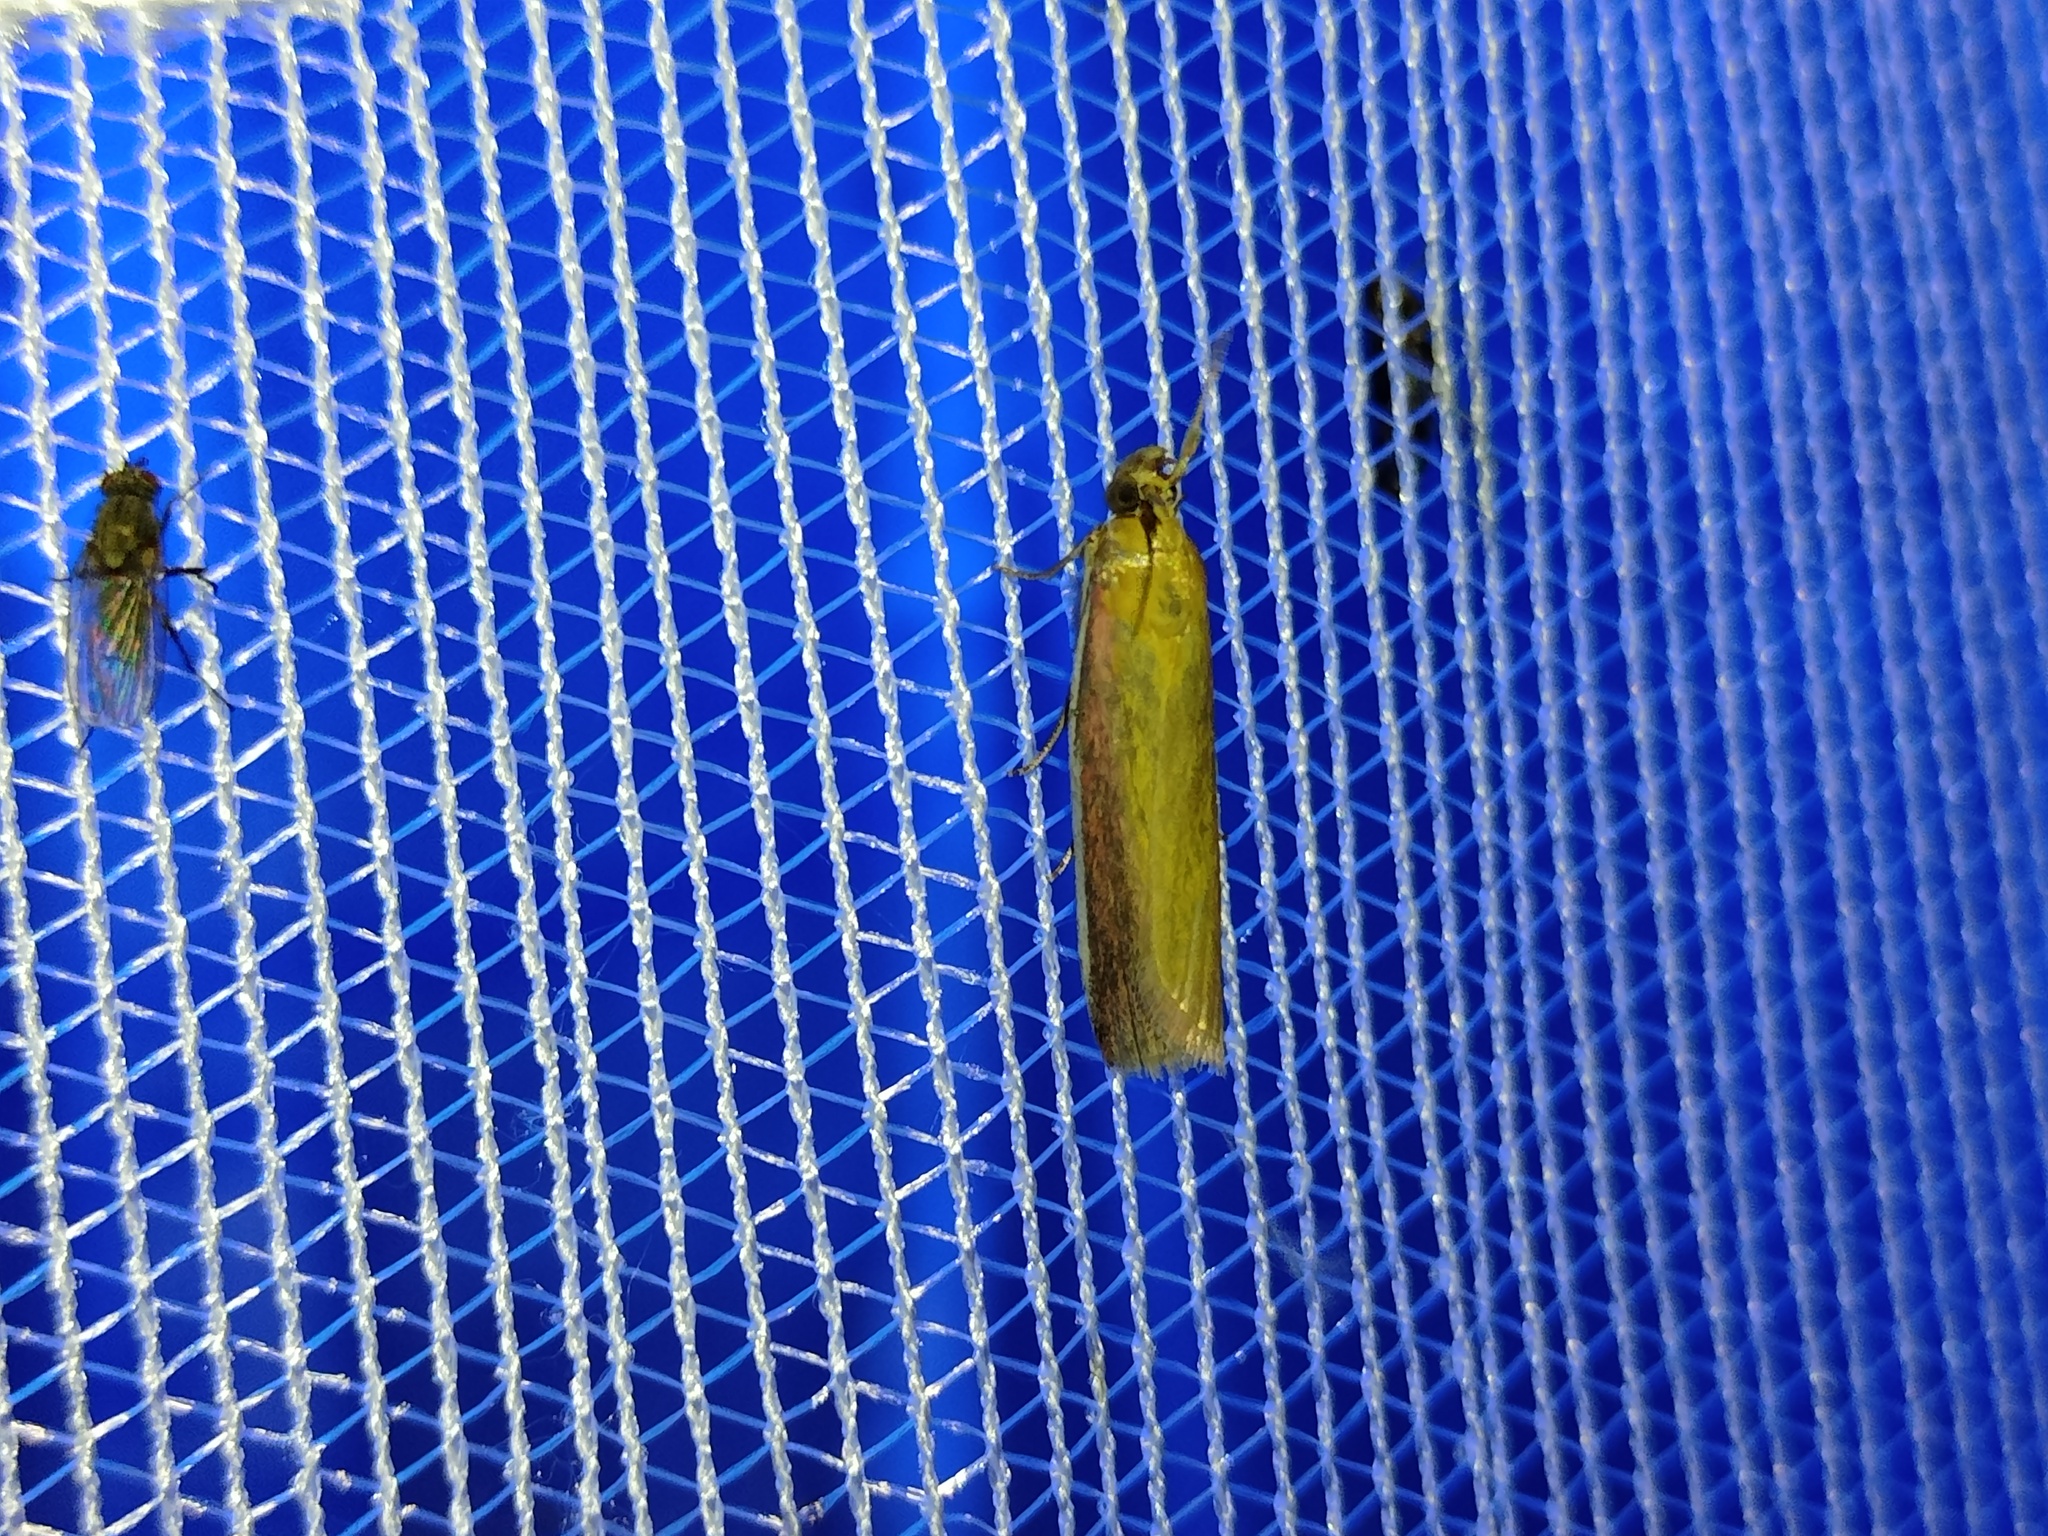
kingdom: Animalia
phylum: Arthropoda
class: Insecta
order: Lepidoptera
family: Pyralidae
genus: Oncocera
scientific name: Oncocera semirubella
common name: Rosy-striped knot-horn
